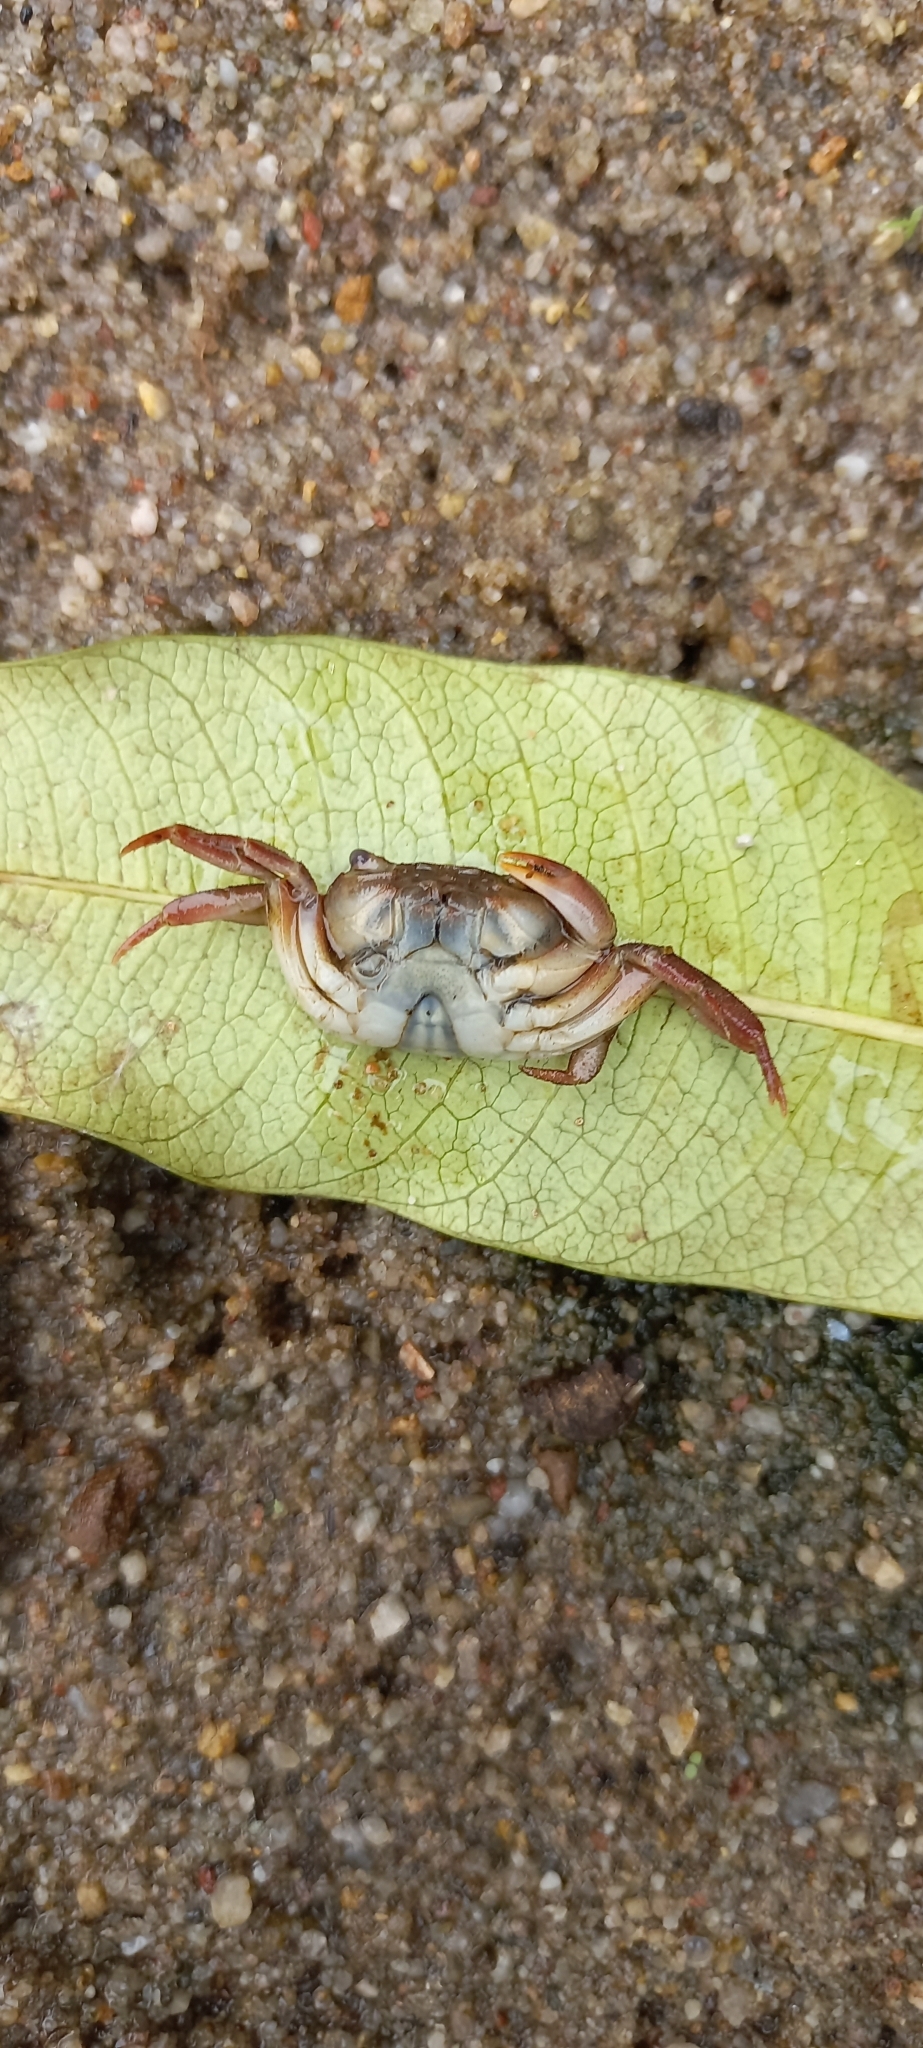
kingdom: Animalia
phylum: Arthropoda
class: Malacostraca
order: Decapoda
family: Potamonautidae
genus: Potamonautes
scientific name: Potamonautes sidneyi
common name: Natal river crab
